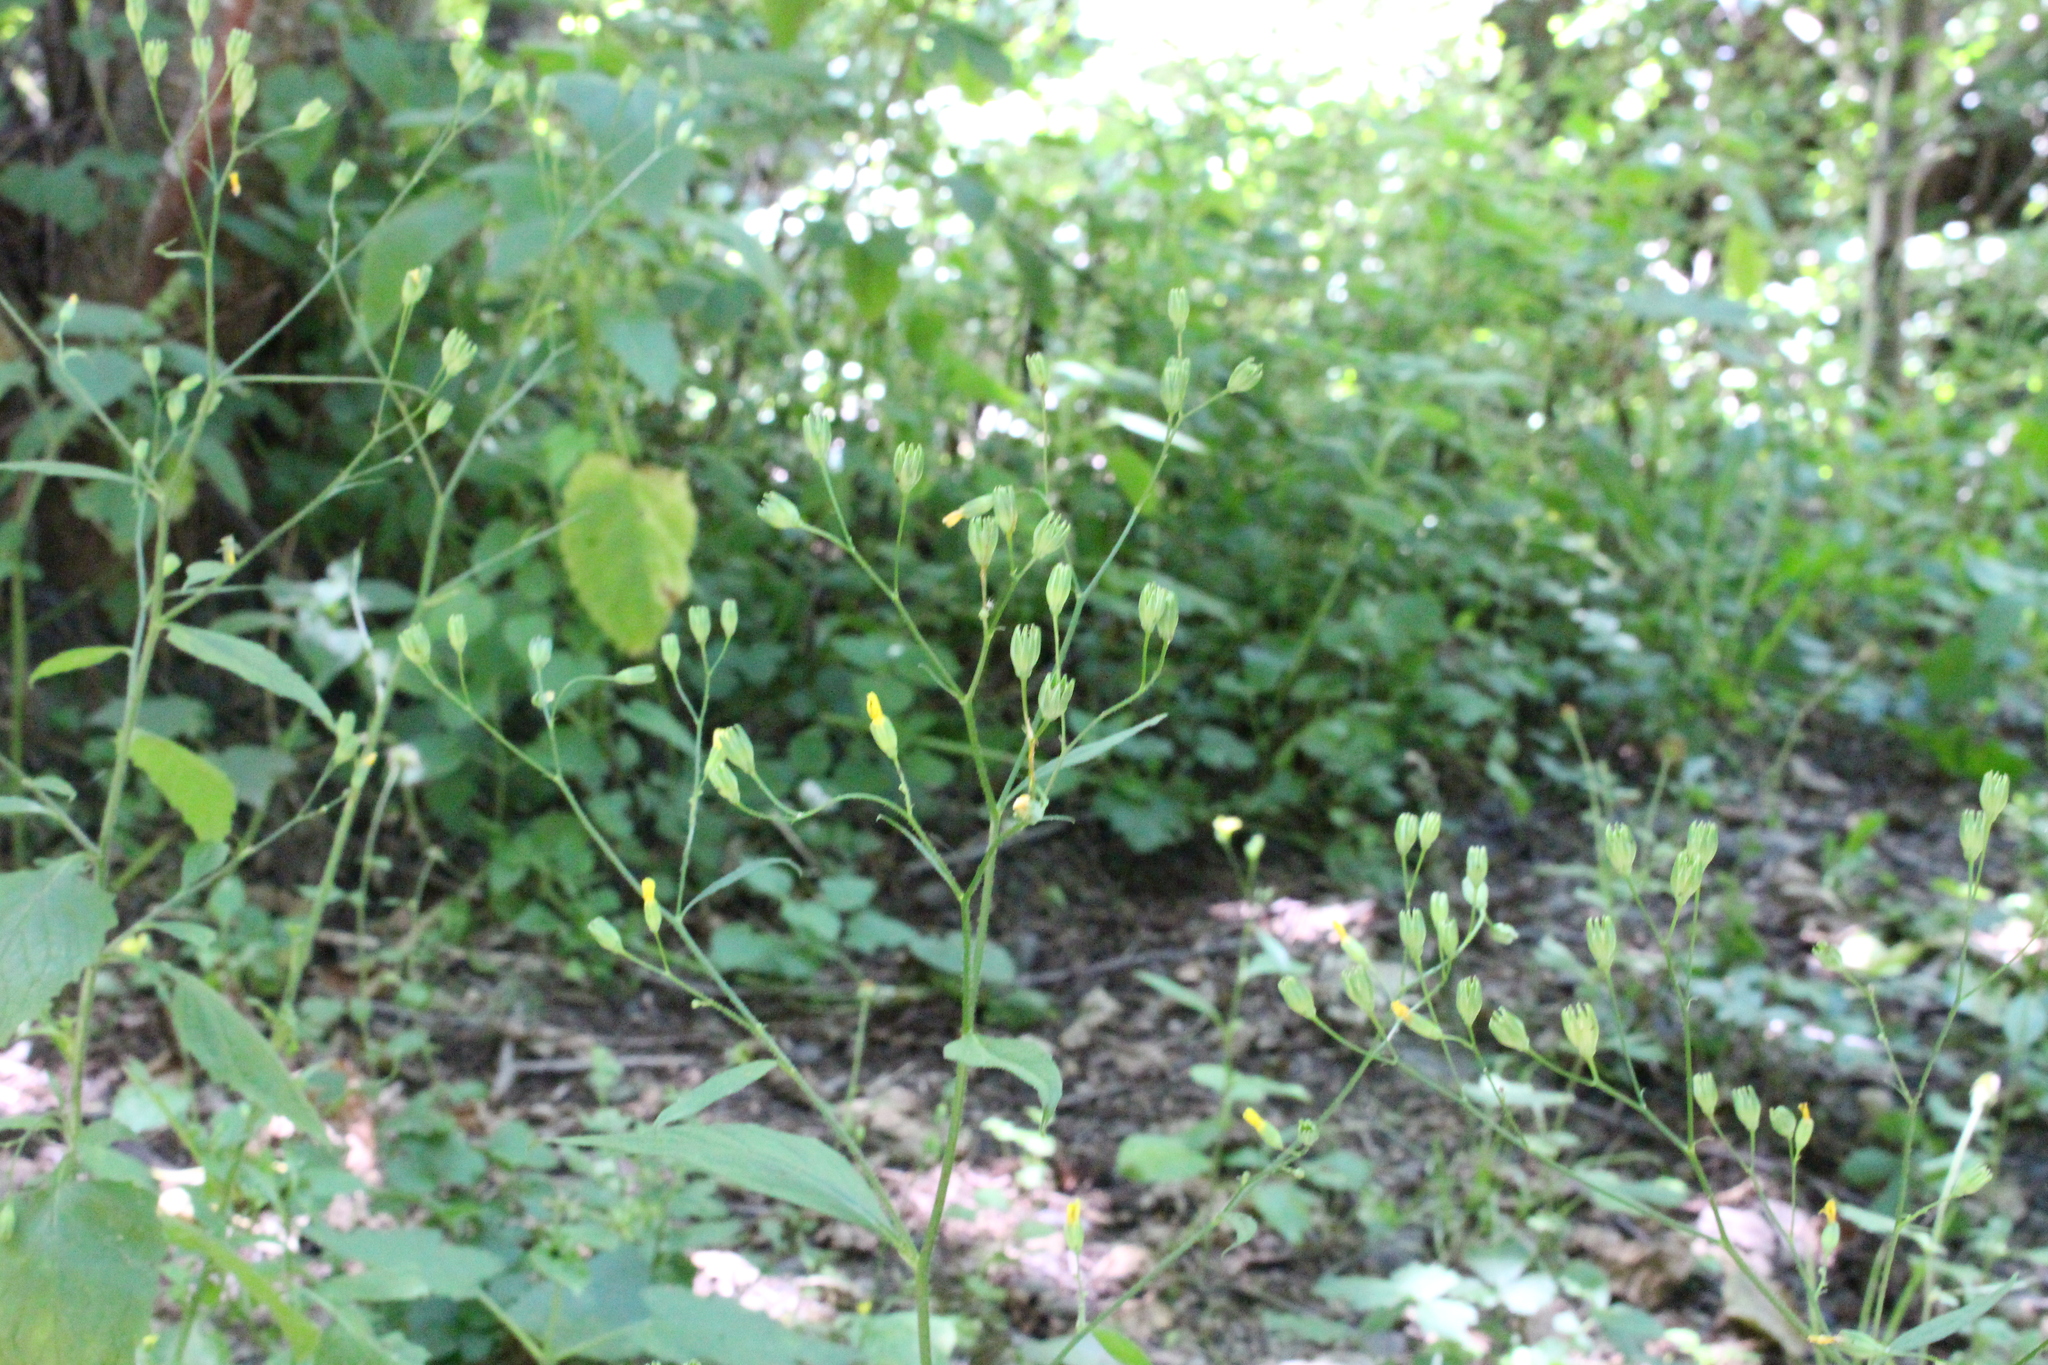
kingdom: Plantae
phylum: Tracheophyta
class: Magnoliopsida
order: Asterales
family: Asteraceae
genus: Lapsana
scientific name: Lapsana communis
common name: Nipplewort
